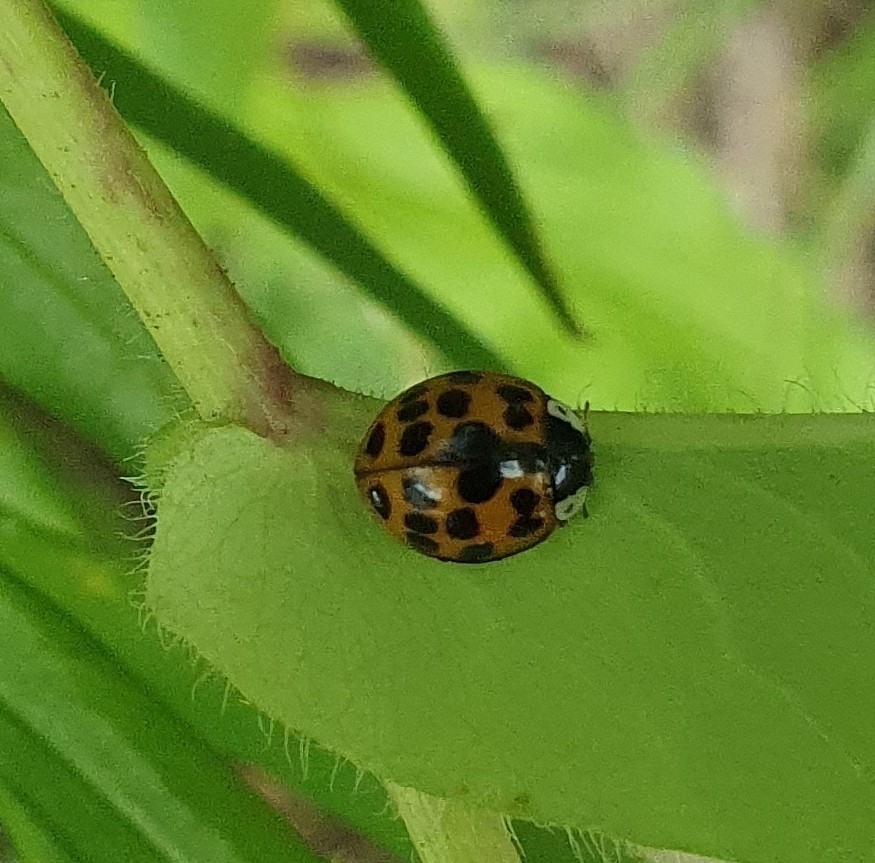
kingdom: Animalia
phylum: Arthropoda
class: Insecta
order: Coleoptera
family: Coccinellidae
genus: Harmonia
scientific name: Harmonia axyridis
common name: Harlequin ladybird
